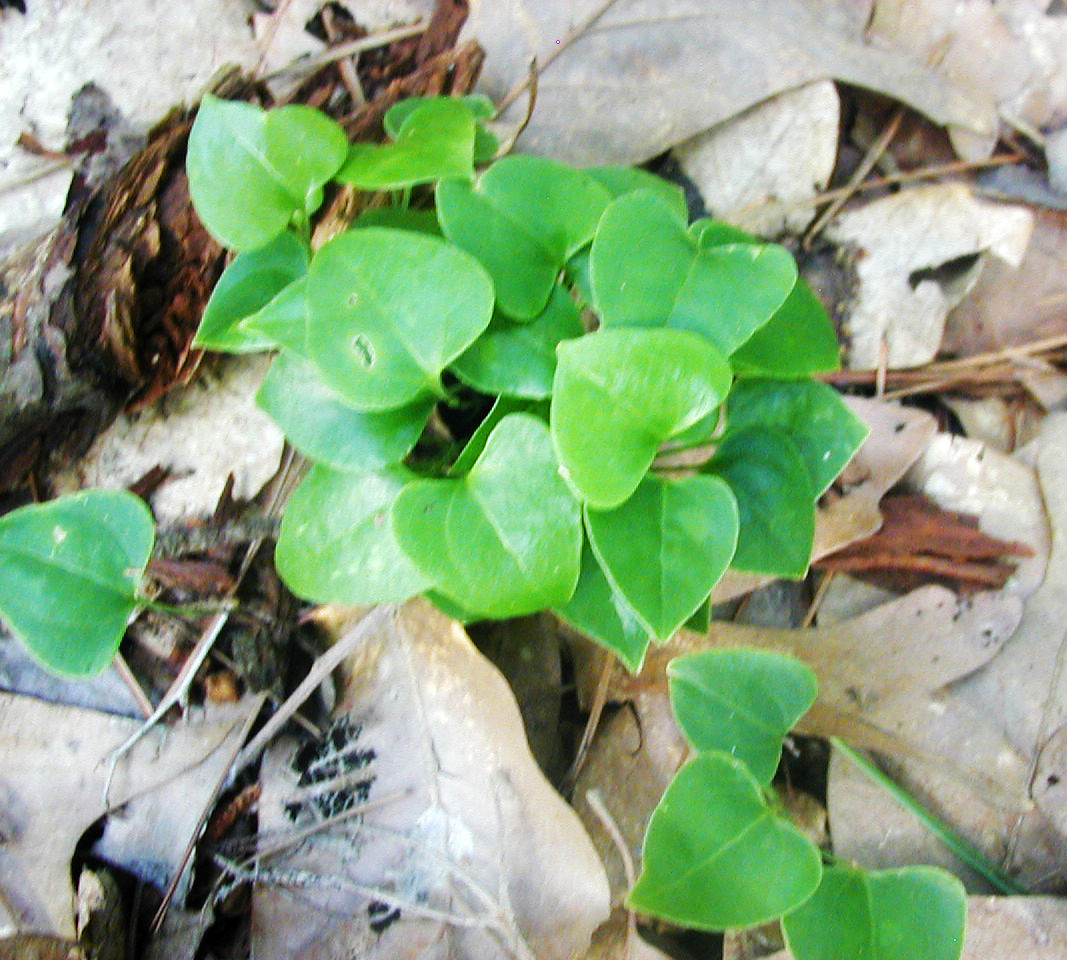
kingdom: Plantae
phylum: Tracheophyta
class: Liliopsida
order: Liliales
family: Smilacaceae
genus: Smilax
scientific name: Smilax rotundifolia
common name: Bullbriar
